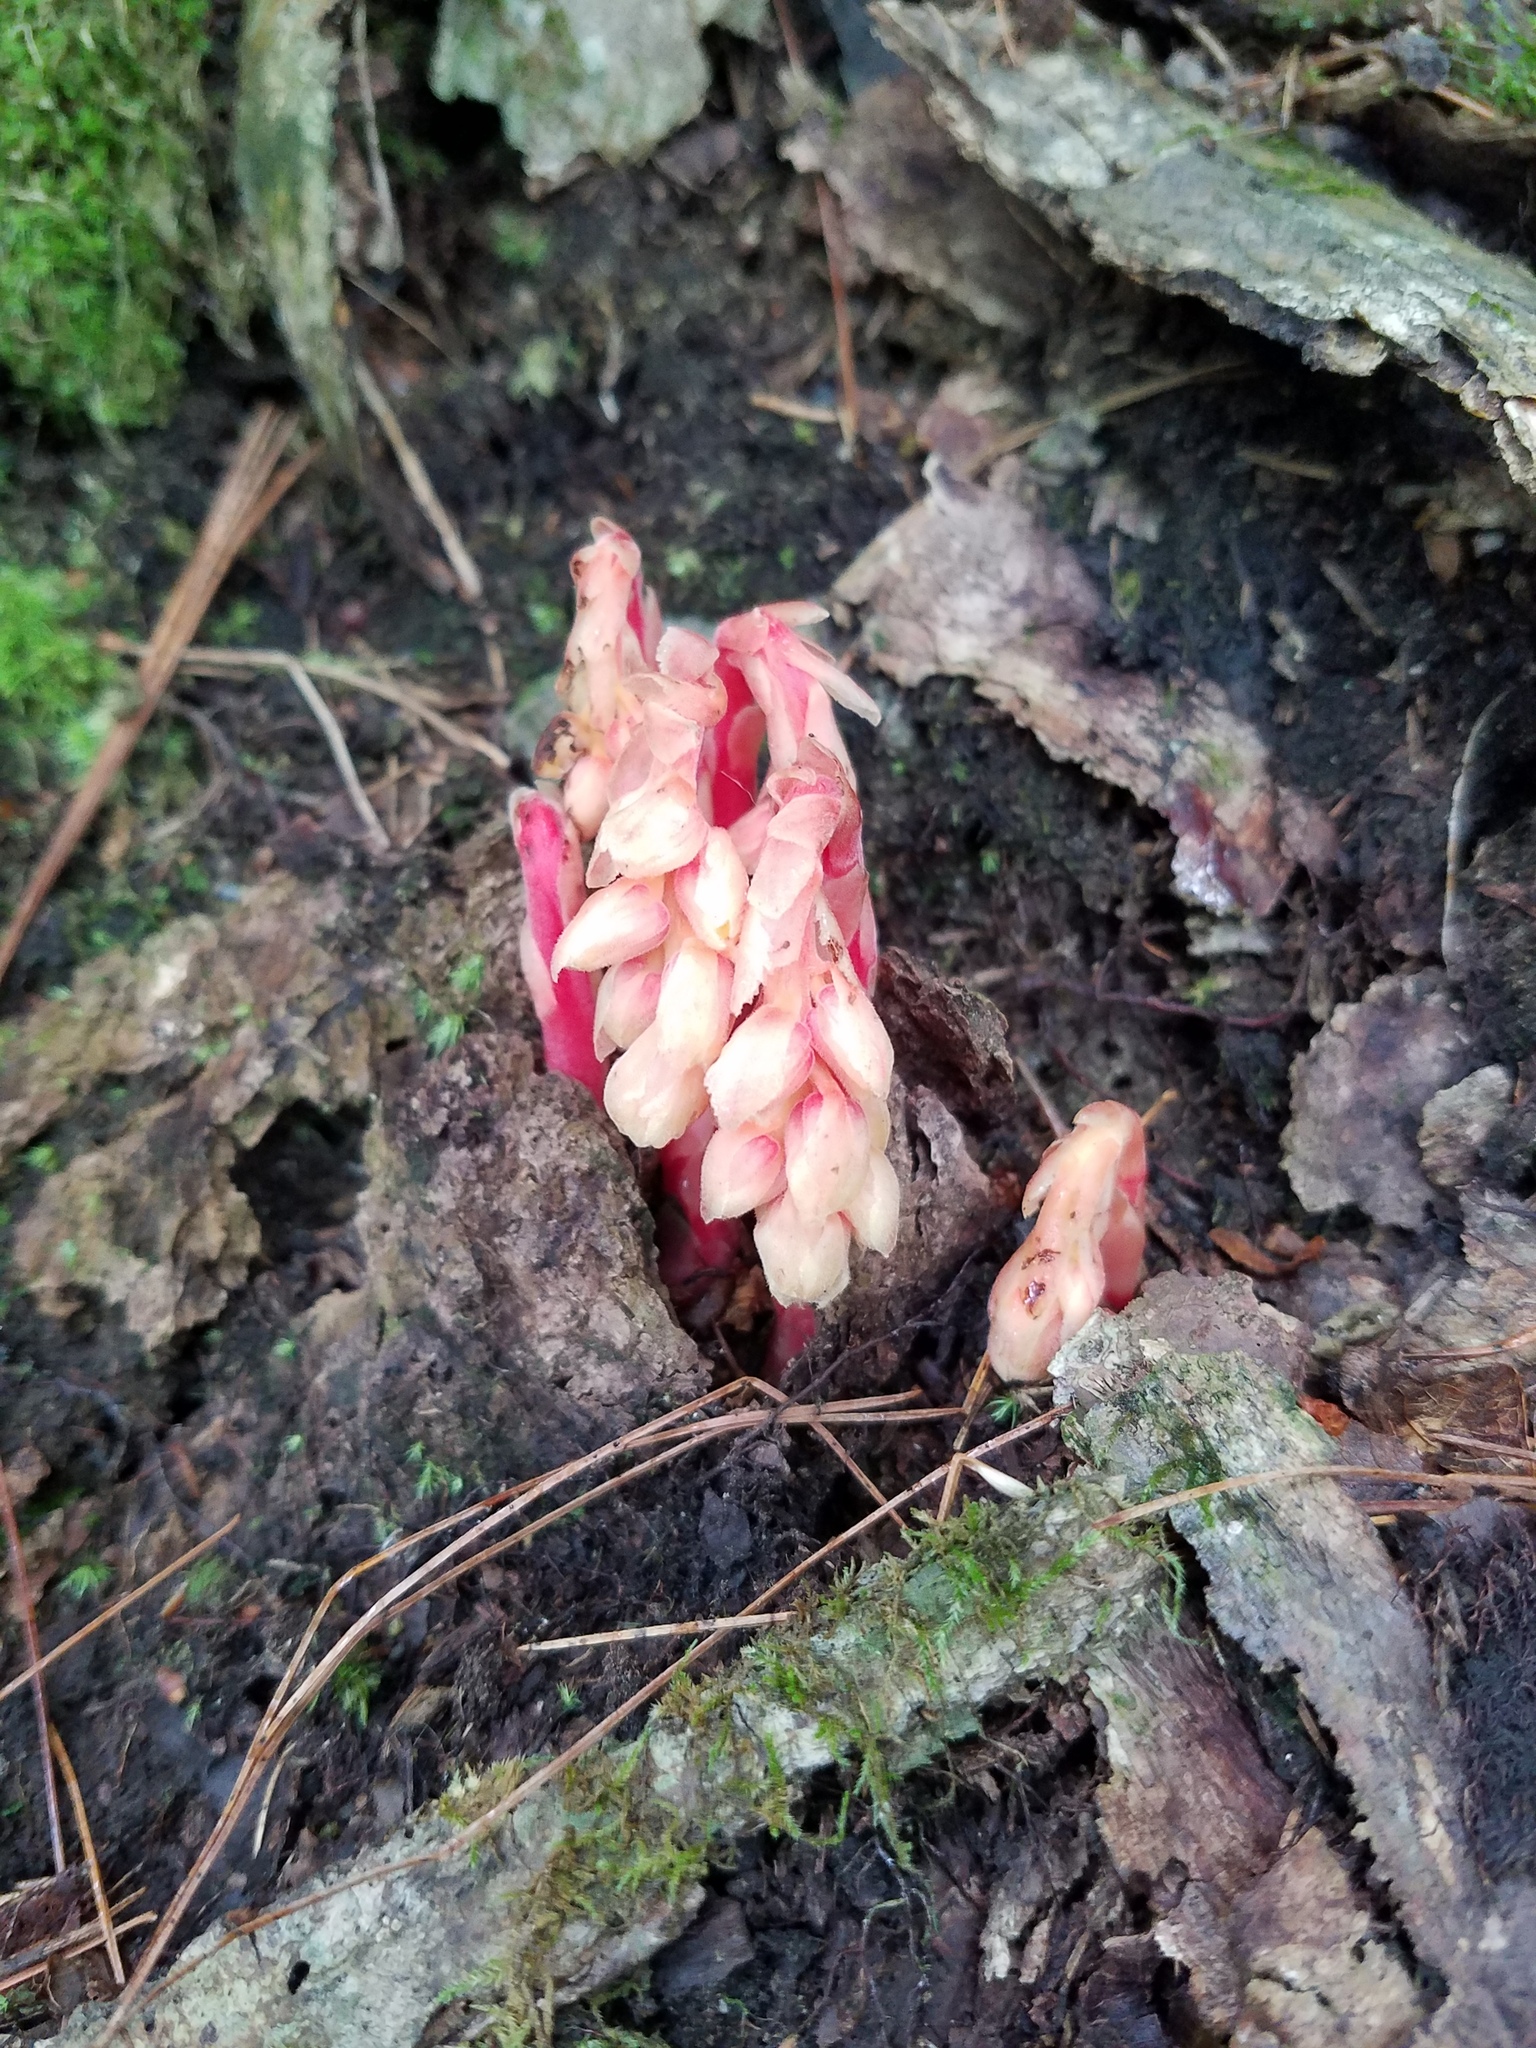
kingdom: Plantae
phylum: Tracheophyta
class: Magnoliopsida
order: Ericales
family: Ericaceae
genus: Hypopitys
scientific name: Hypopitys monotropa
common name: Yellow bird's-nest
